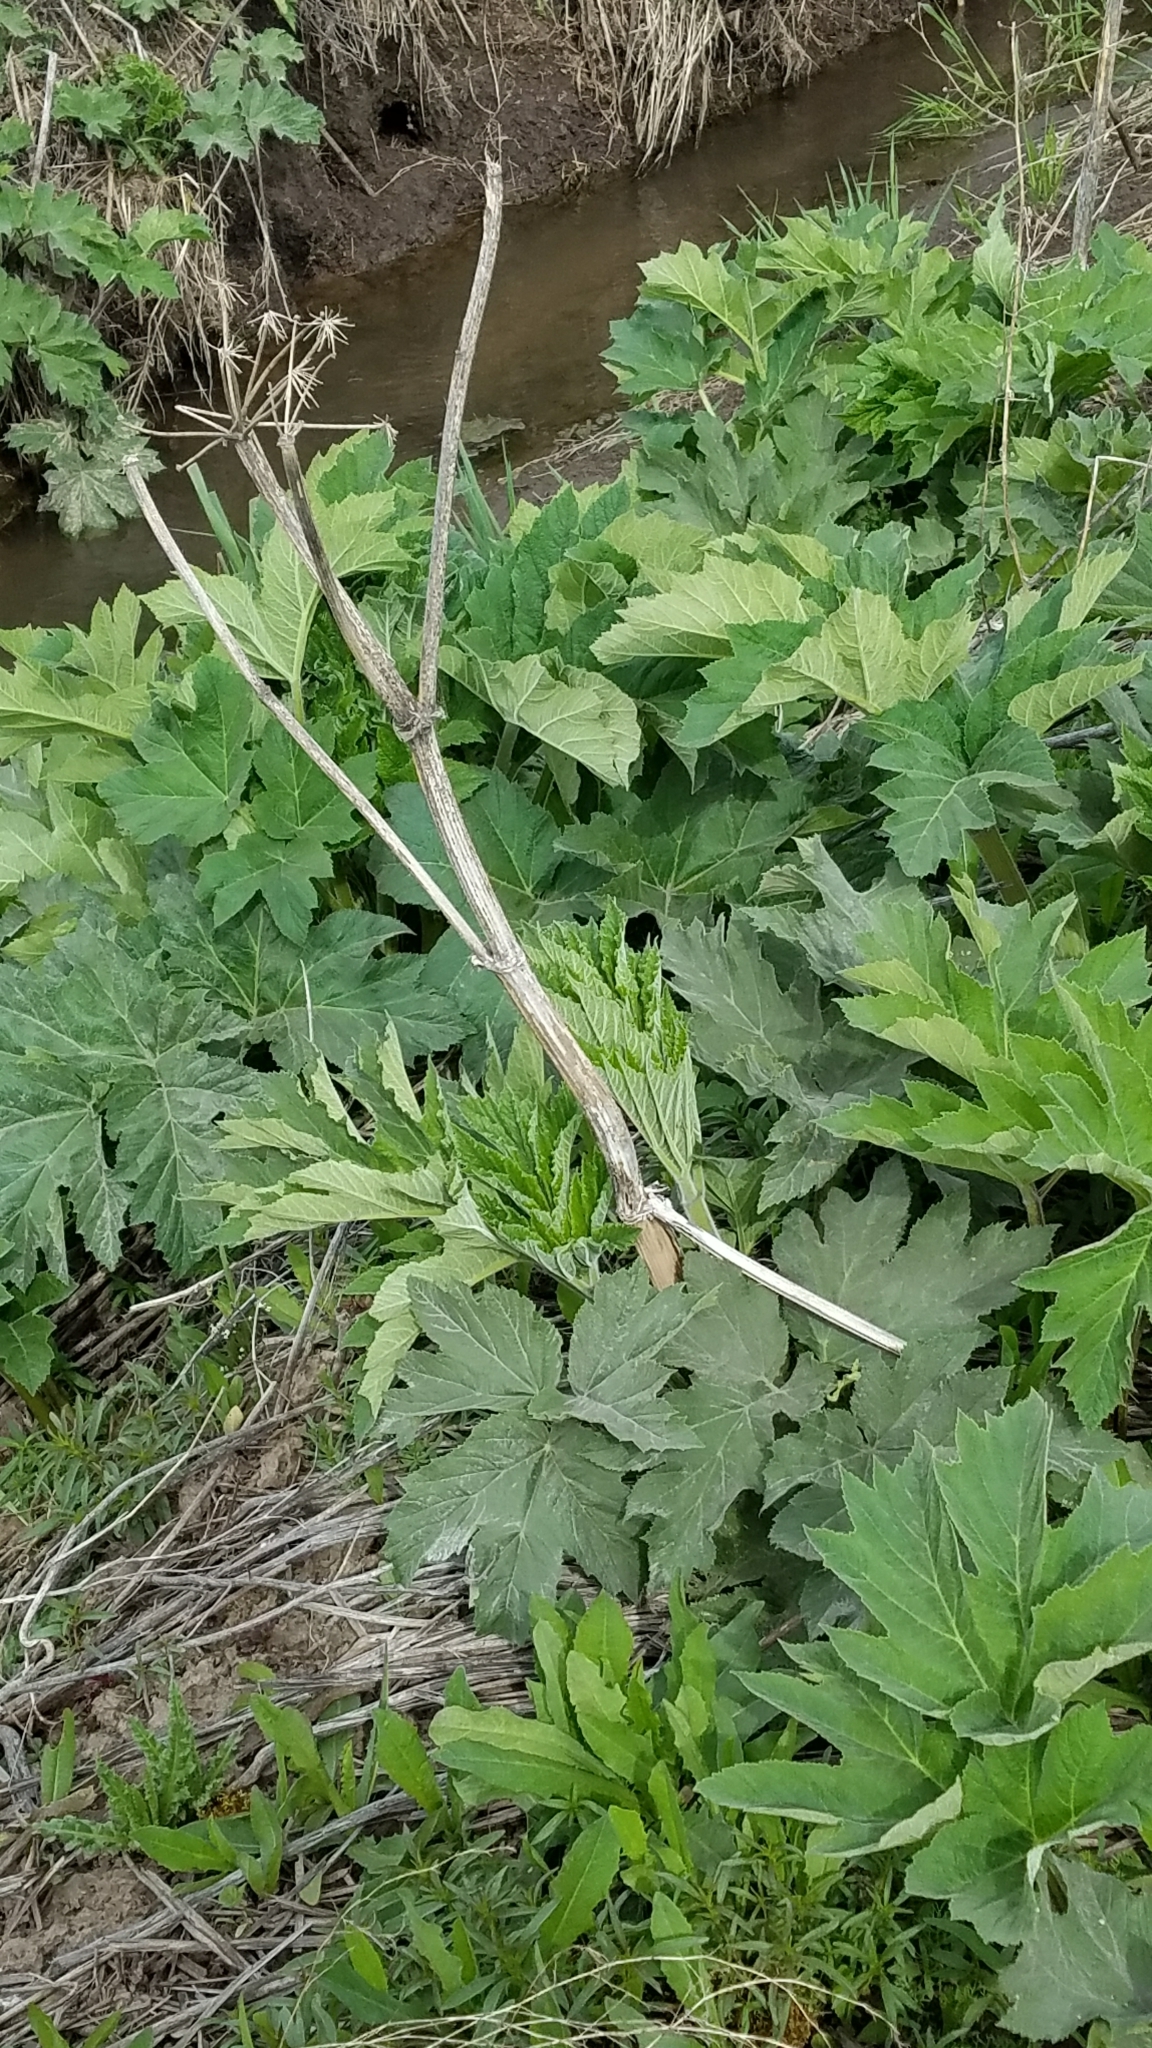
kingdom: Plantae
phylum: Tracheophyta
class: Magnoliopsida
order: Apiales
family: Apiaceae
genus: Heracleum
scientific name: Heracleum maximum
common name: American cow parsnip
